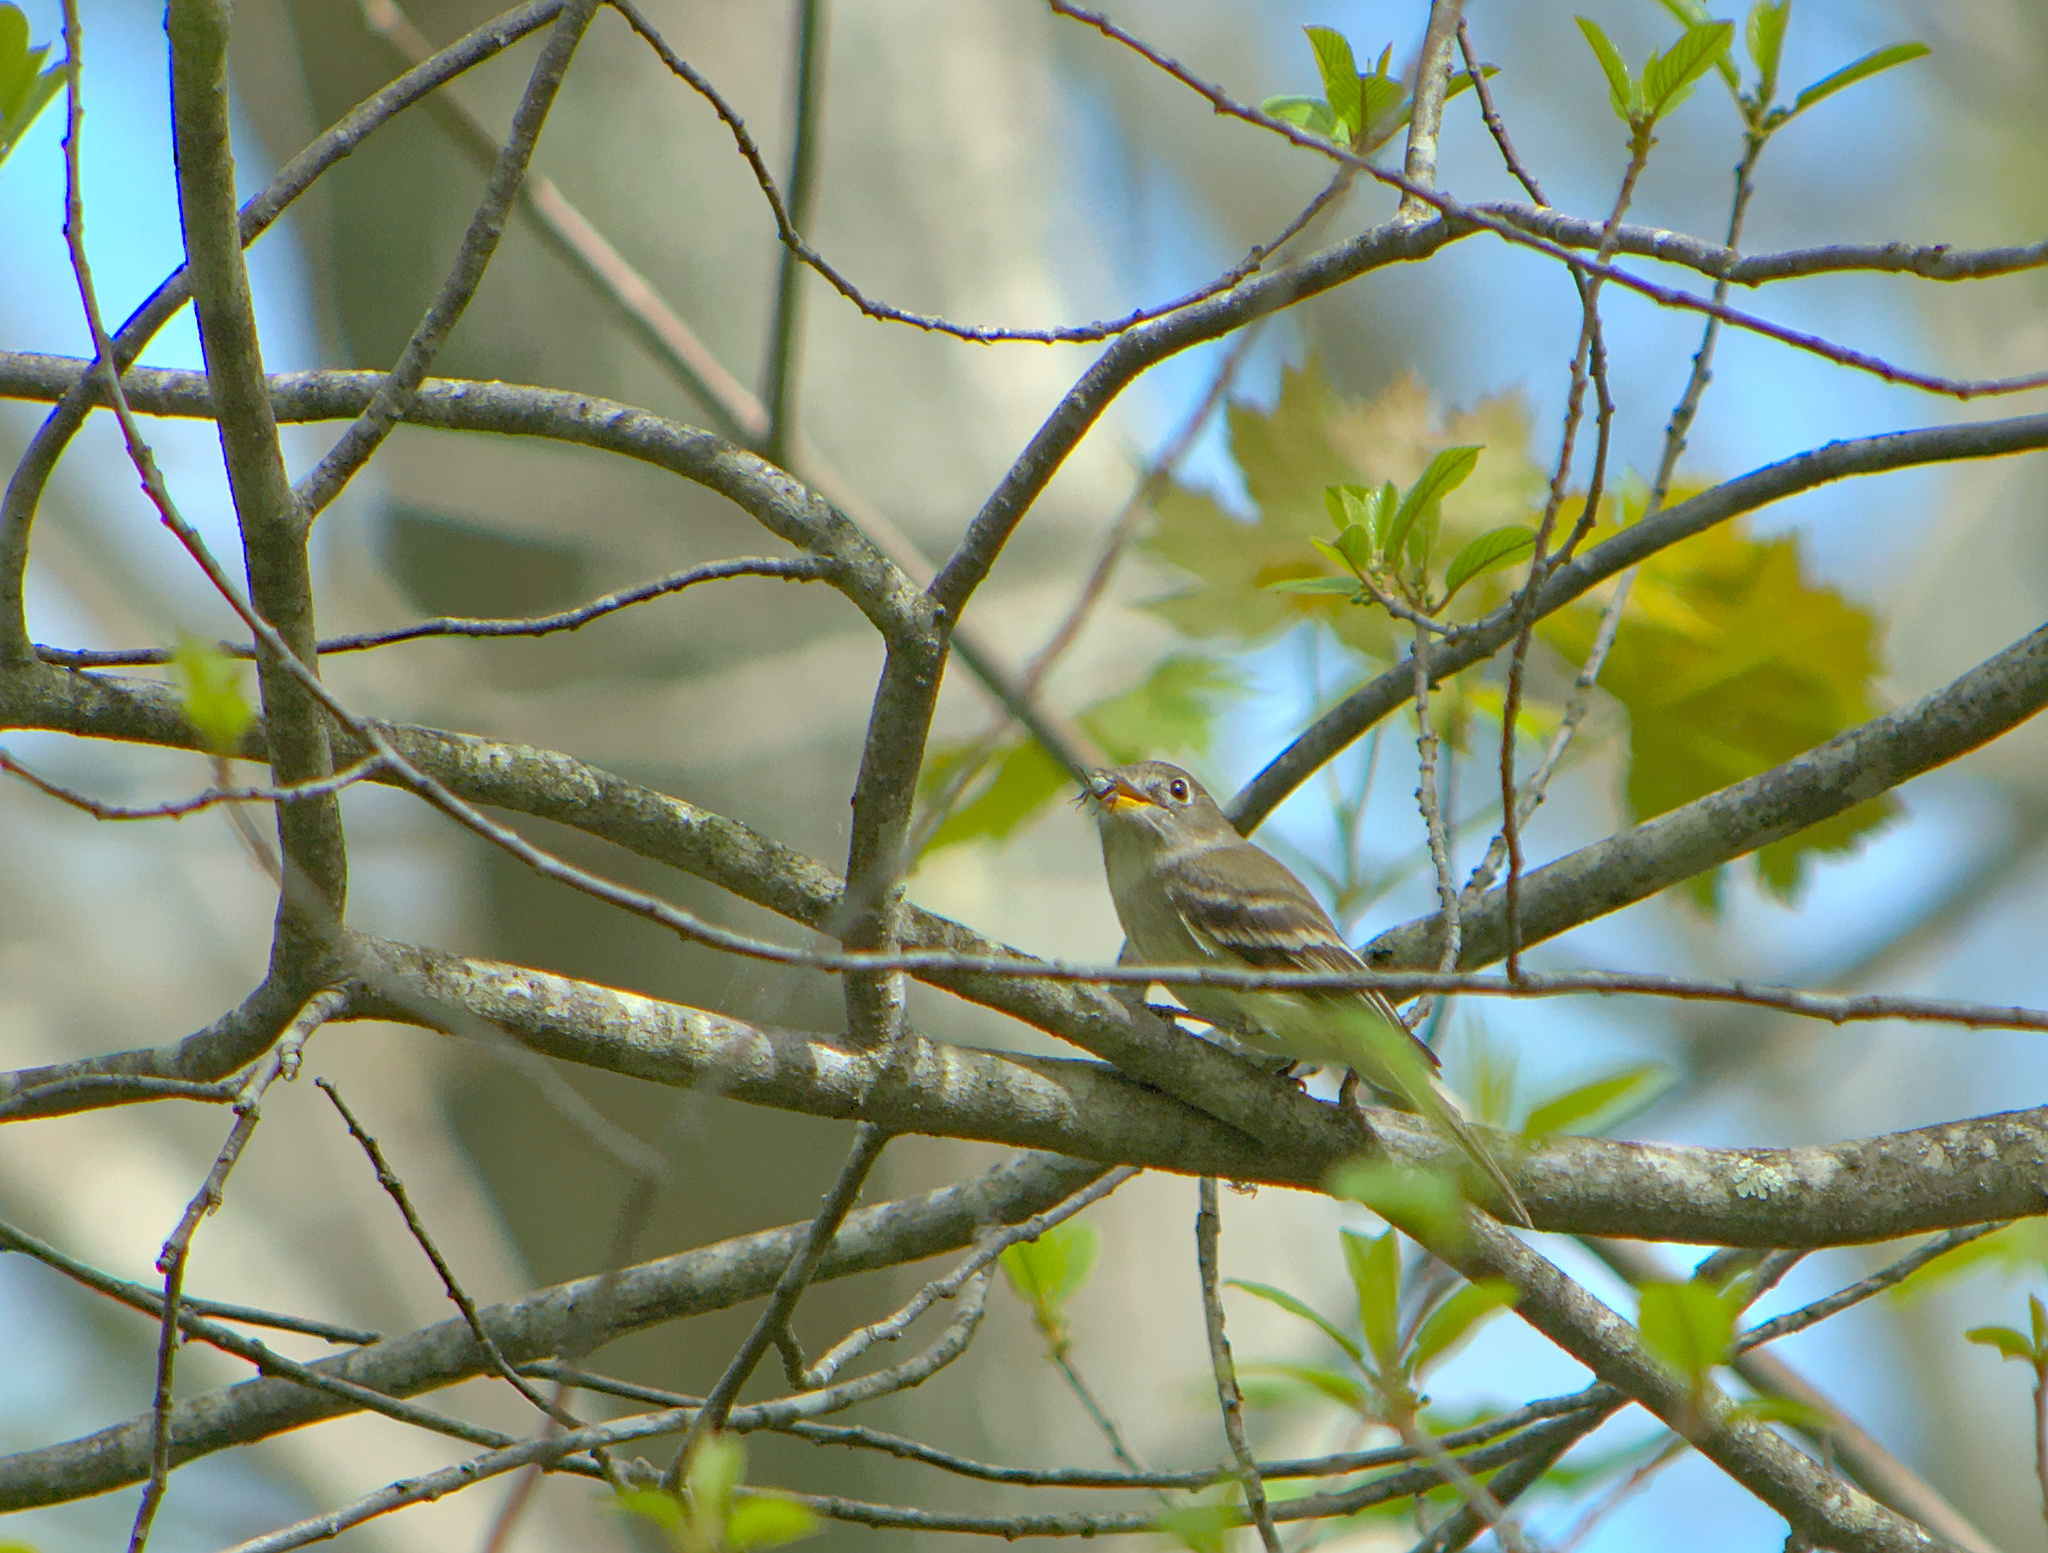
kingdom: Animalia
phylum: Chordata
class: Aves
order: Passeriformes
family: Tyrannidae
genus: Empidonax
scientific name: Empidonax minimus
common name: Least flycatcher
